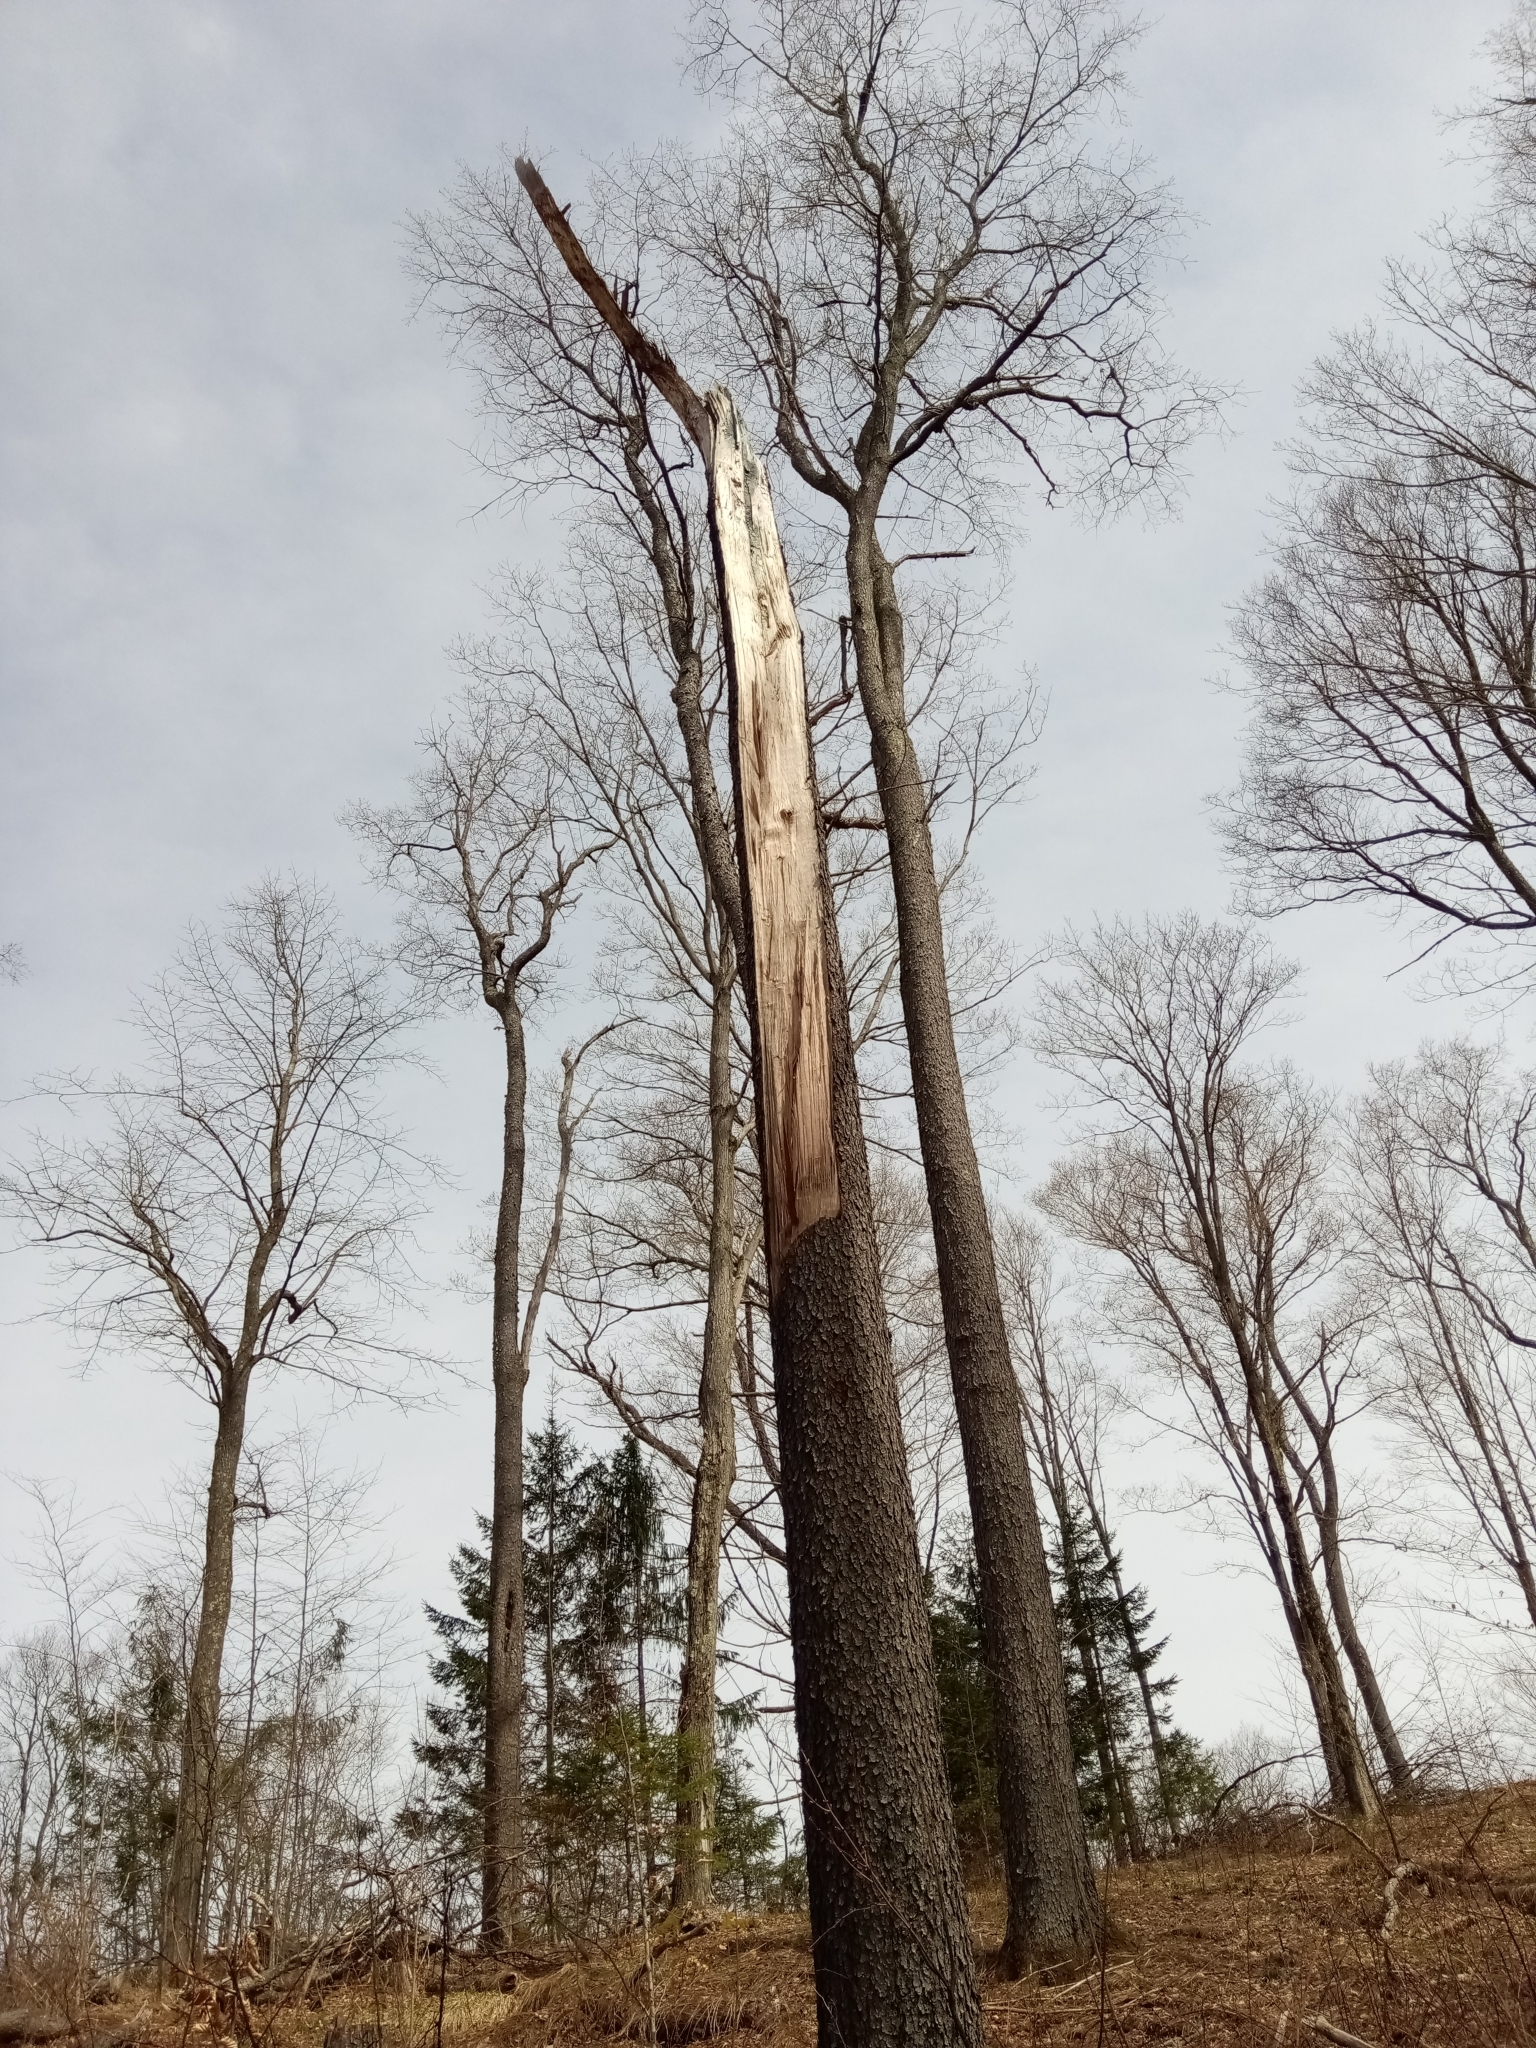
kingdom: Fungi
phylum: Ascomycota
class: Leotiomycetes
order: Helotiales
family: Chlorociboriaceae
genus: Chlorociboria
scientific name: Chlorociboria
